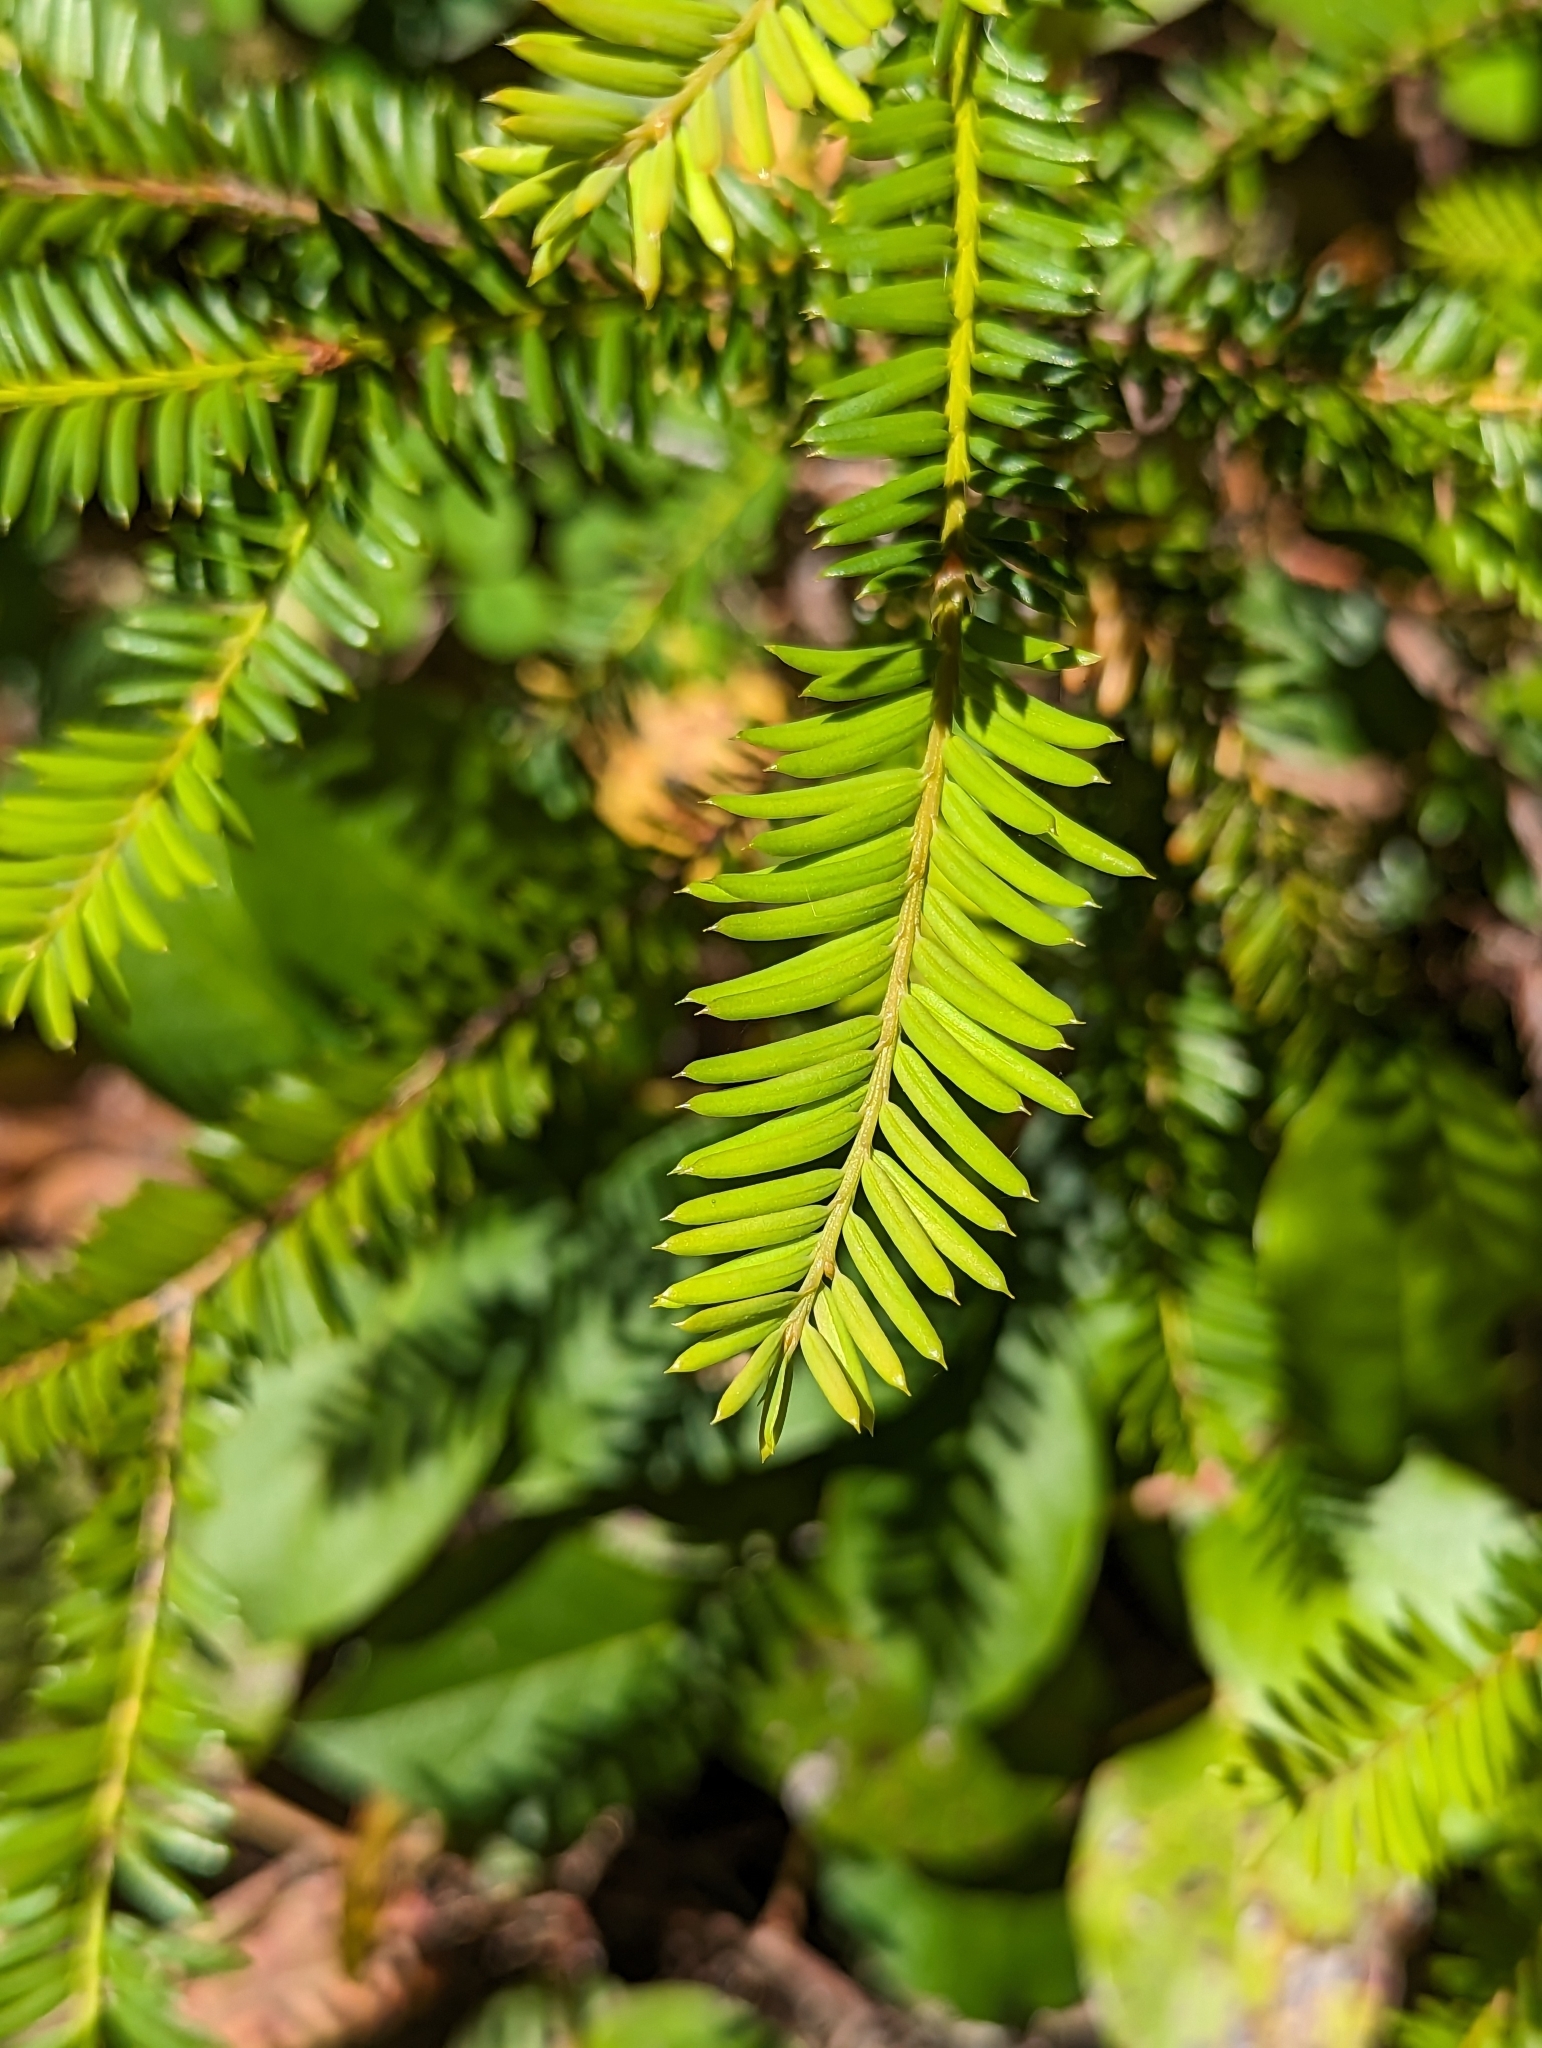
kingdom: Plantae
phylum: Tracheophyta
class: Pinopsida
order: Pinales
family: Taxaceae
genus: Taxus
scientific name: Taxus brevifolia
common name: Pacific yew
